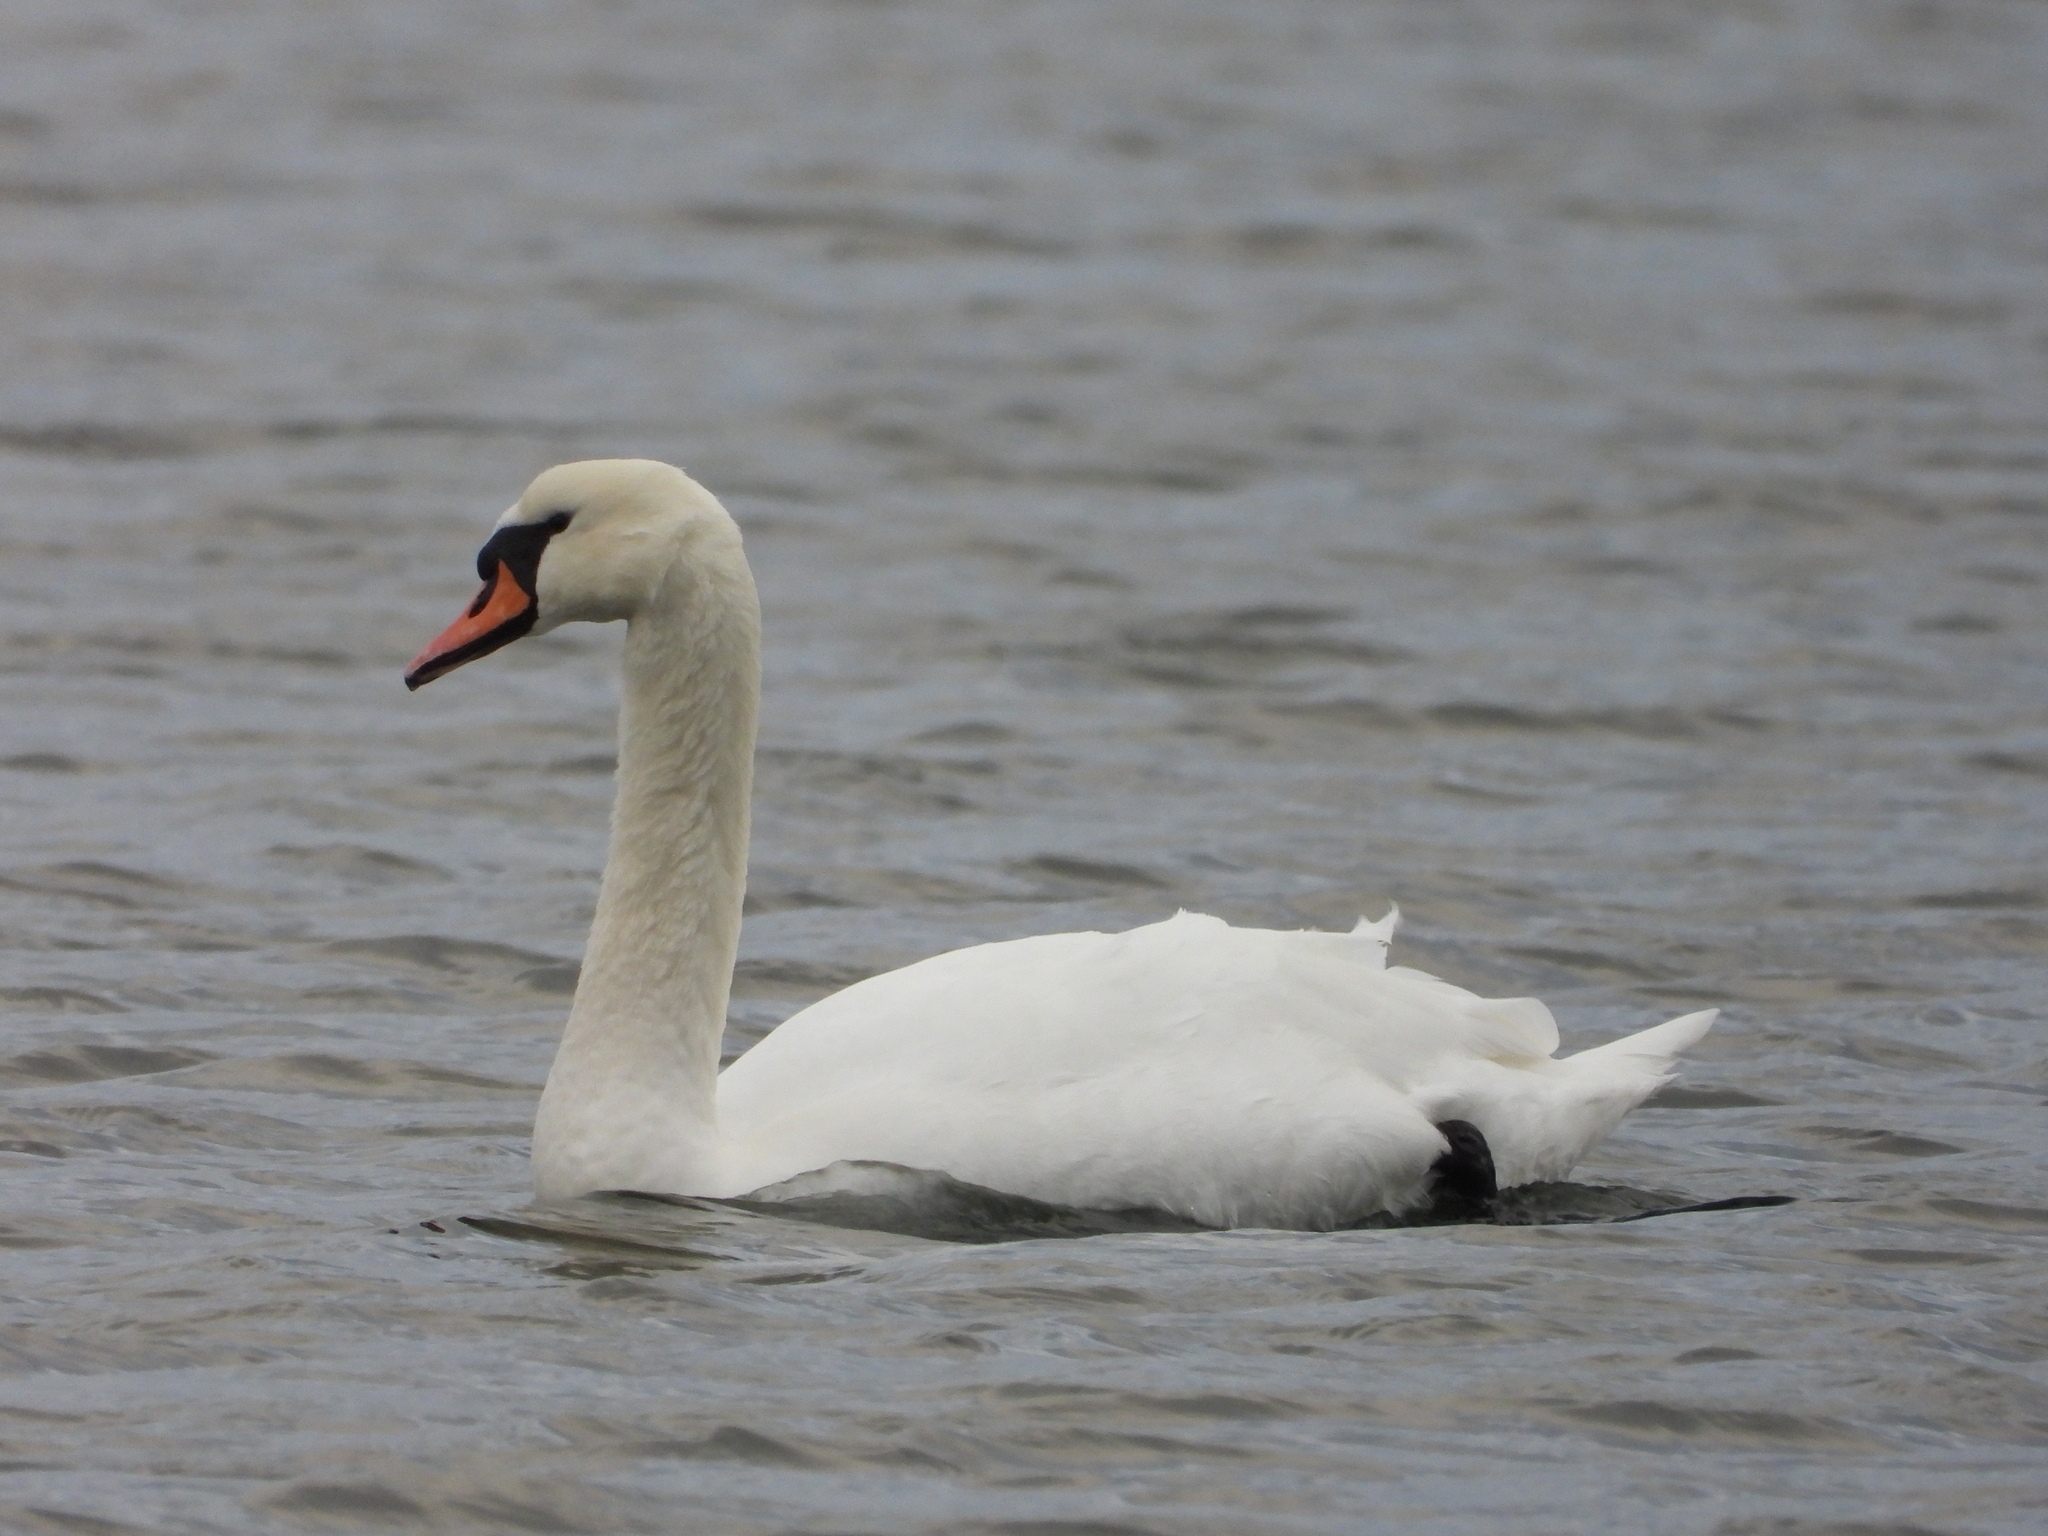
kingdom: Animalia
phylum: Chordata
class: Aves
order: Anseriformes
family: Anatidae
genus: Cygnus
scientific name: Cygnus olor
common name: Mute swan
